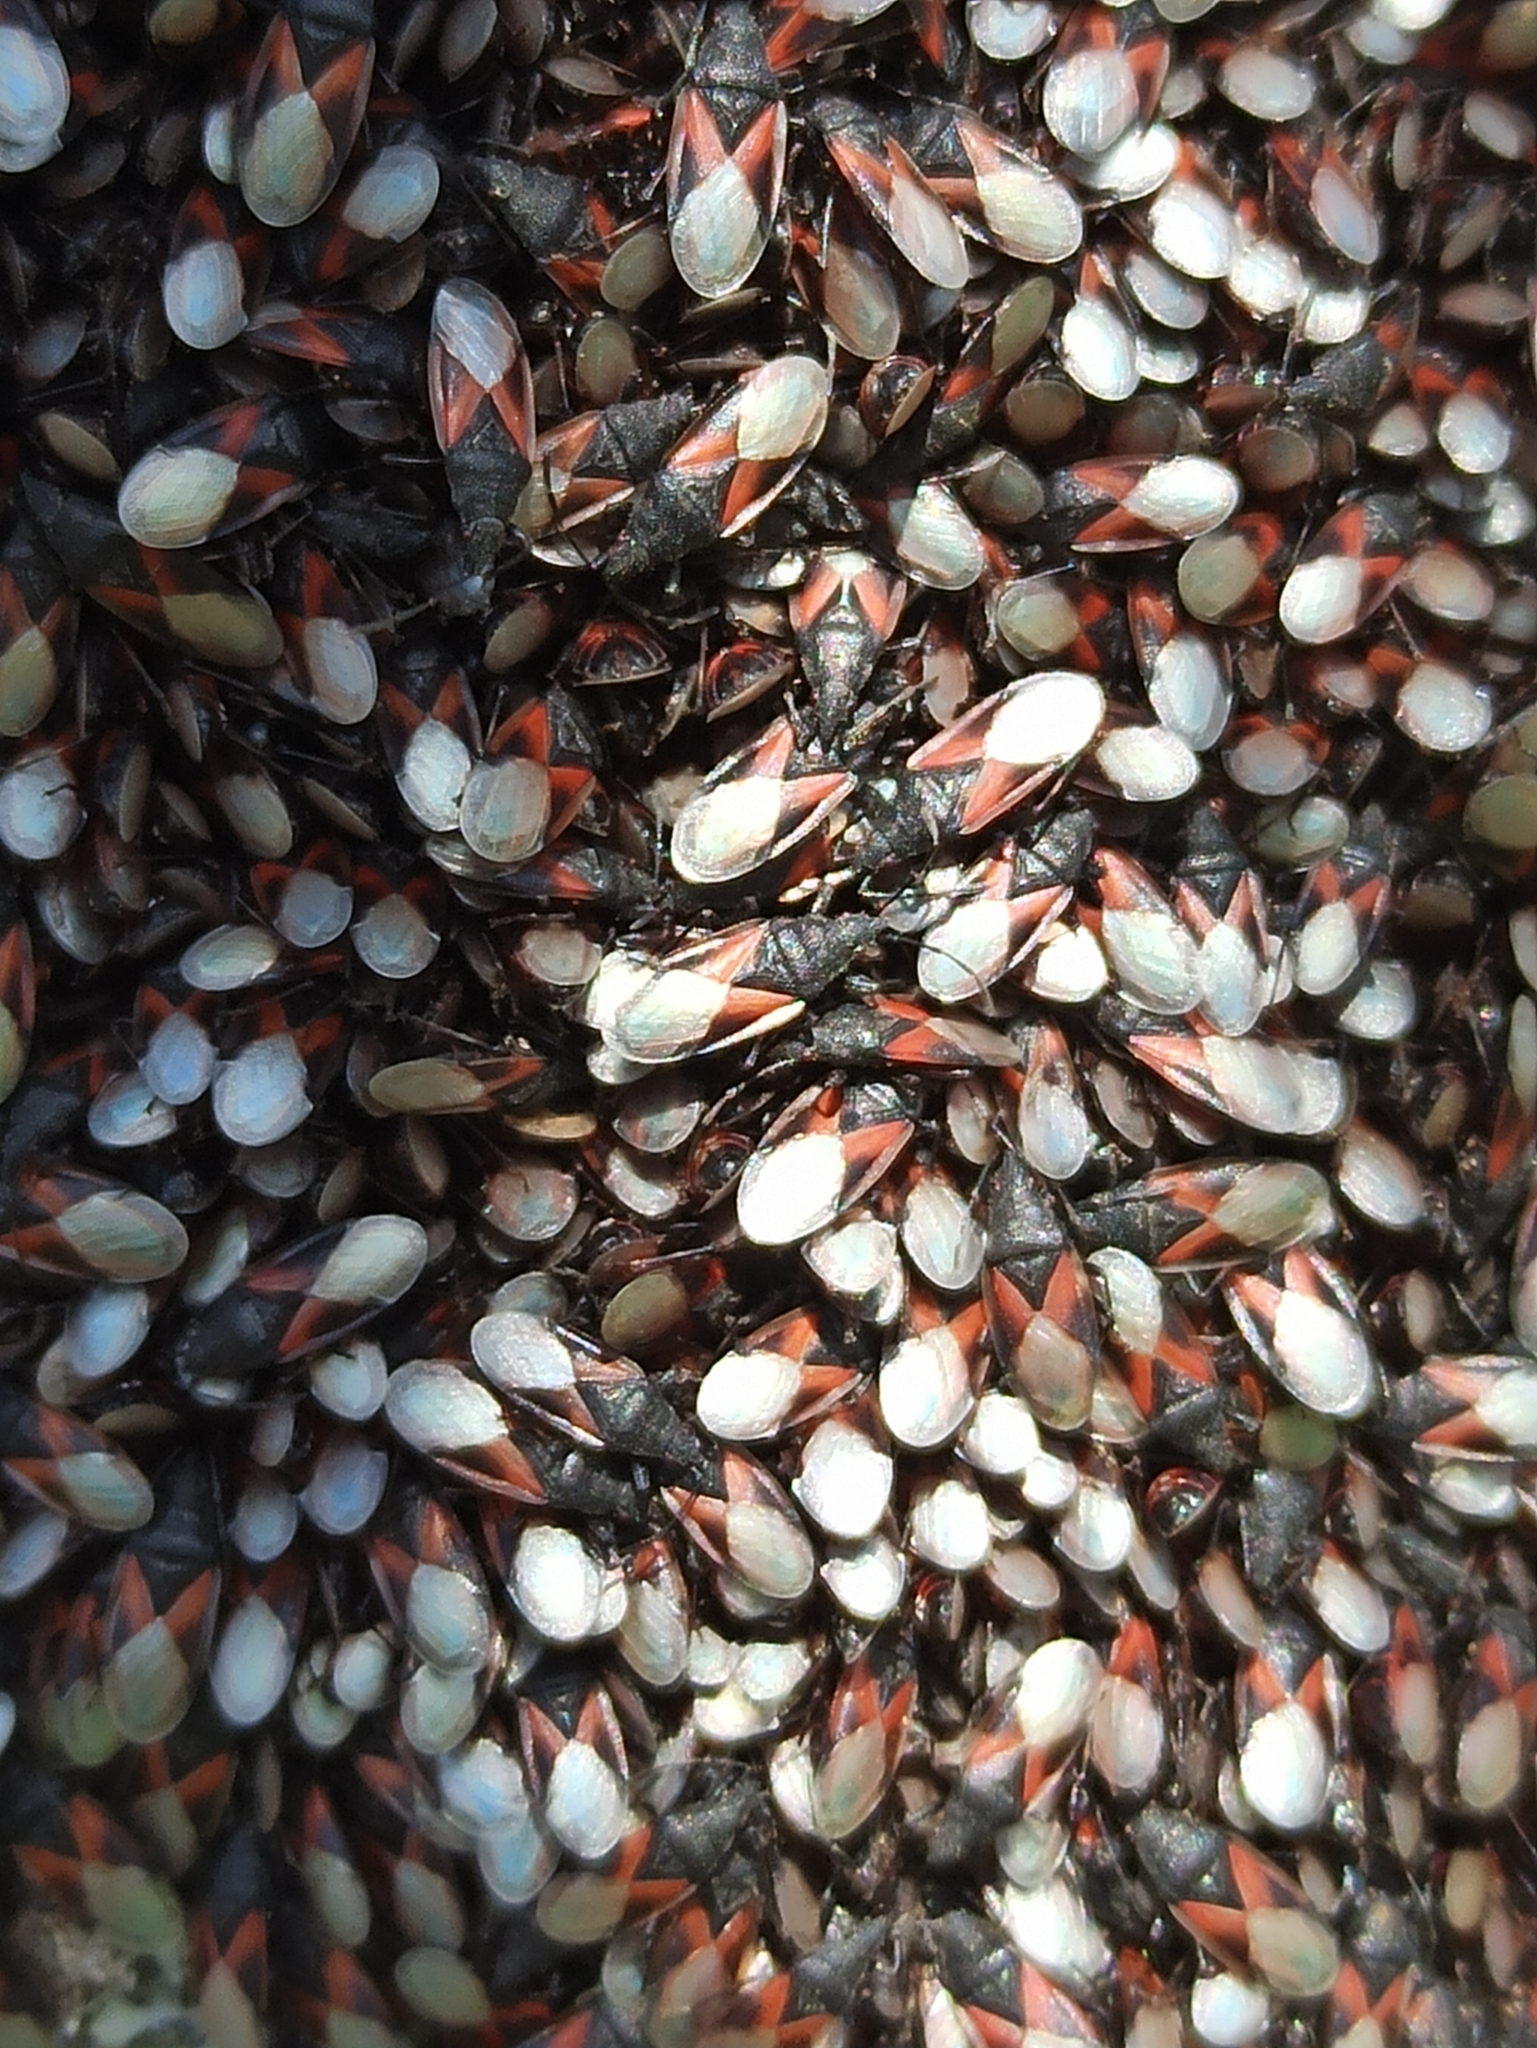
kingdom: Animalia
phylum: Arthropoda
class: Insecta
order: Hemiptera
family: Oxycarenidae
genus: Oxycarenus
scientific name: Oxycarenus lavaterae
